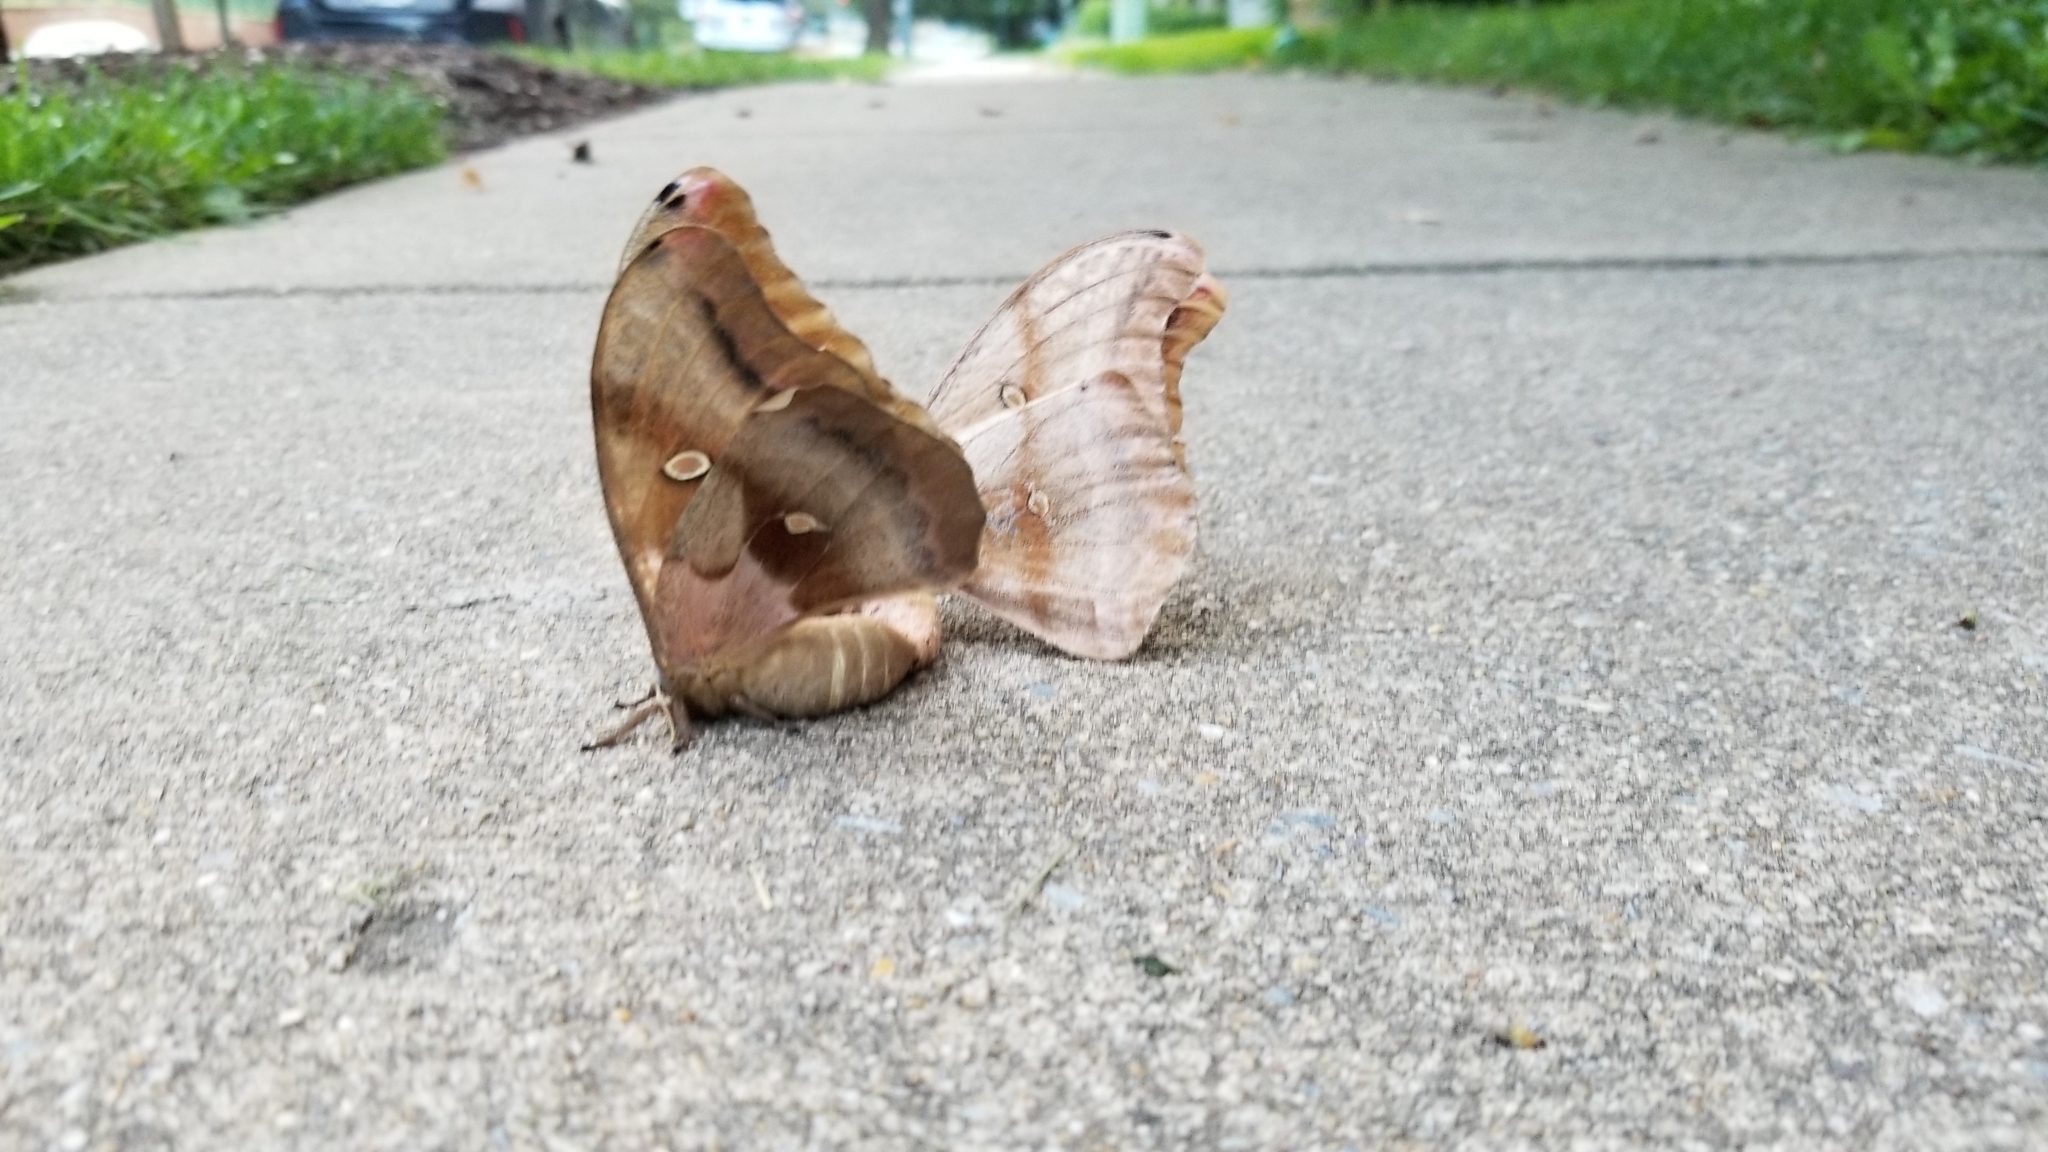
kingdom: Animalia
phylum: Arthropoda
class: Insecta
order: Lepidoptera
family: Saturniidae
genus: Antheraea
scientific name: Antheraea polyphemus
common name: Polyphemus moth
